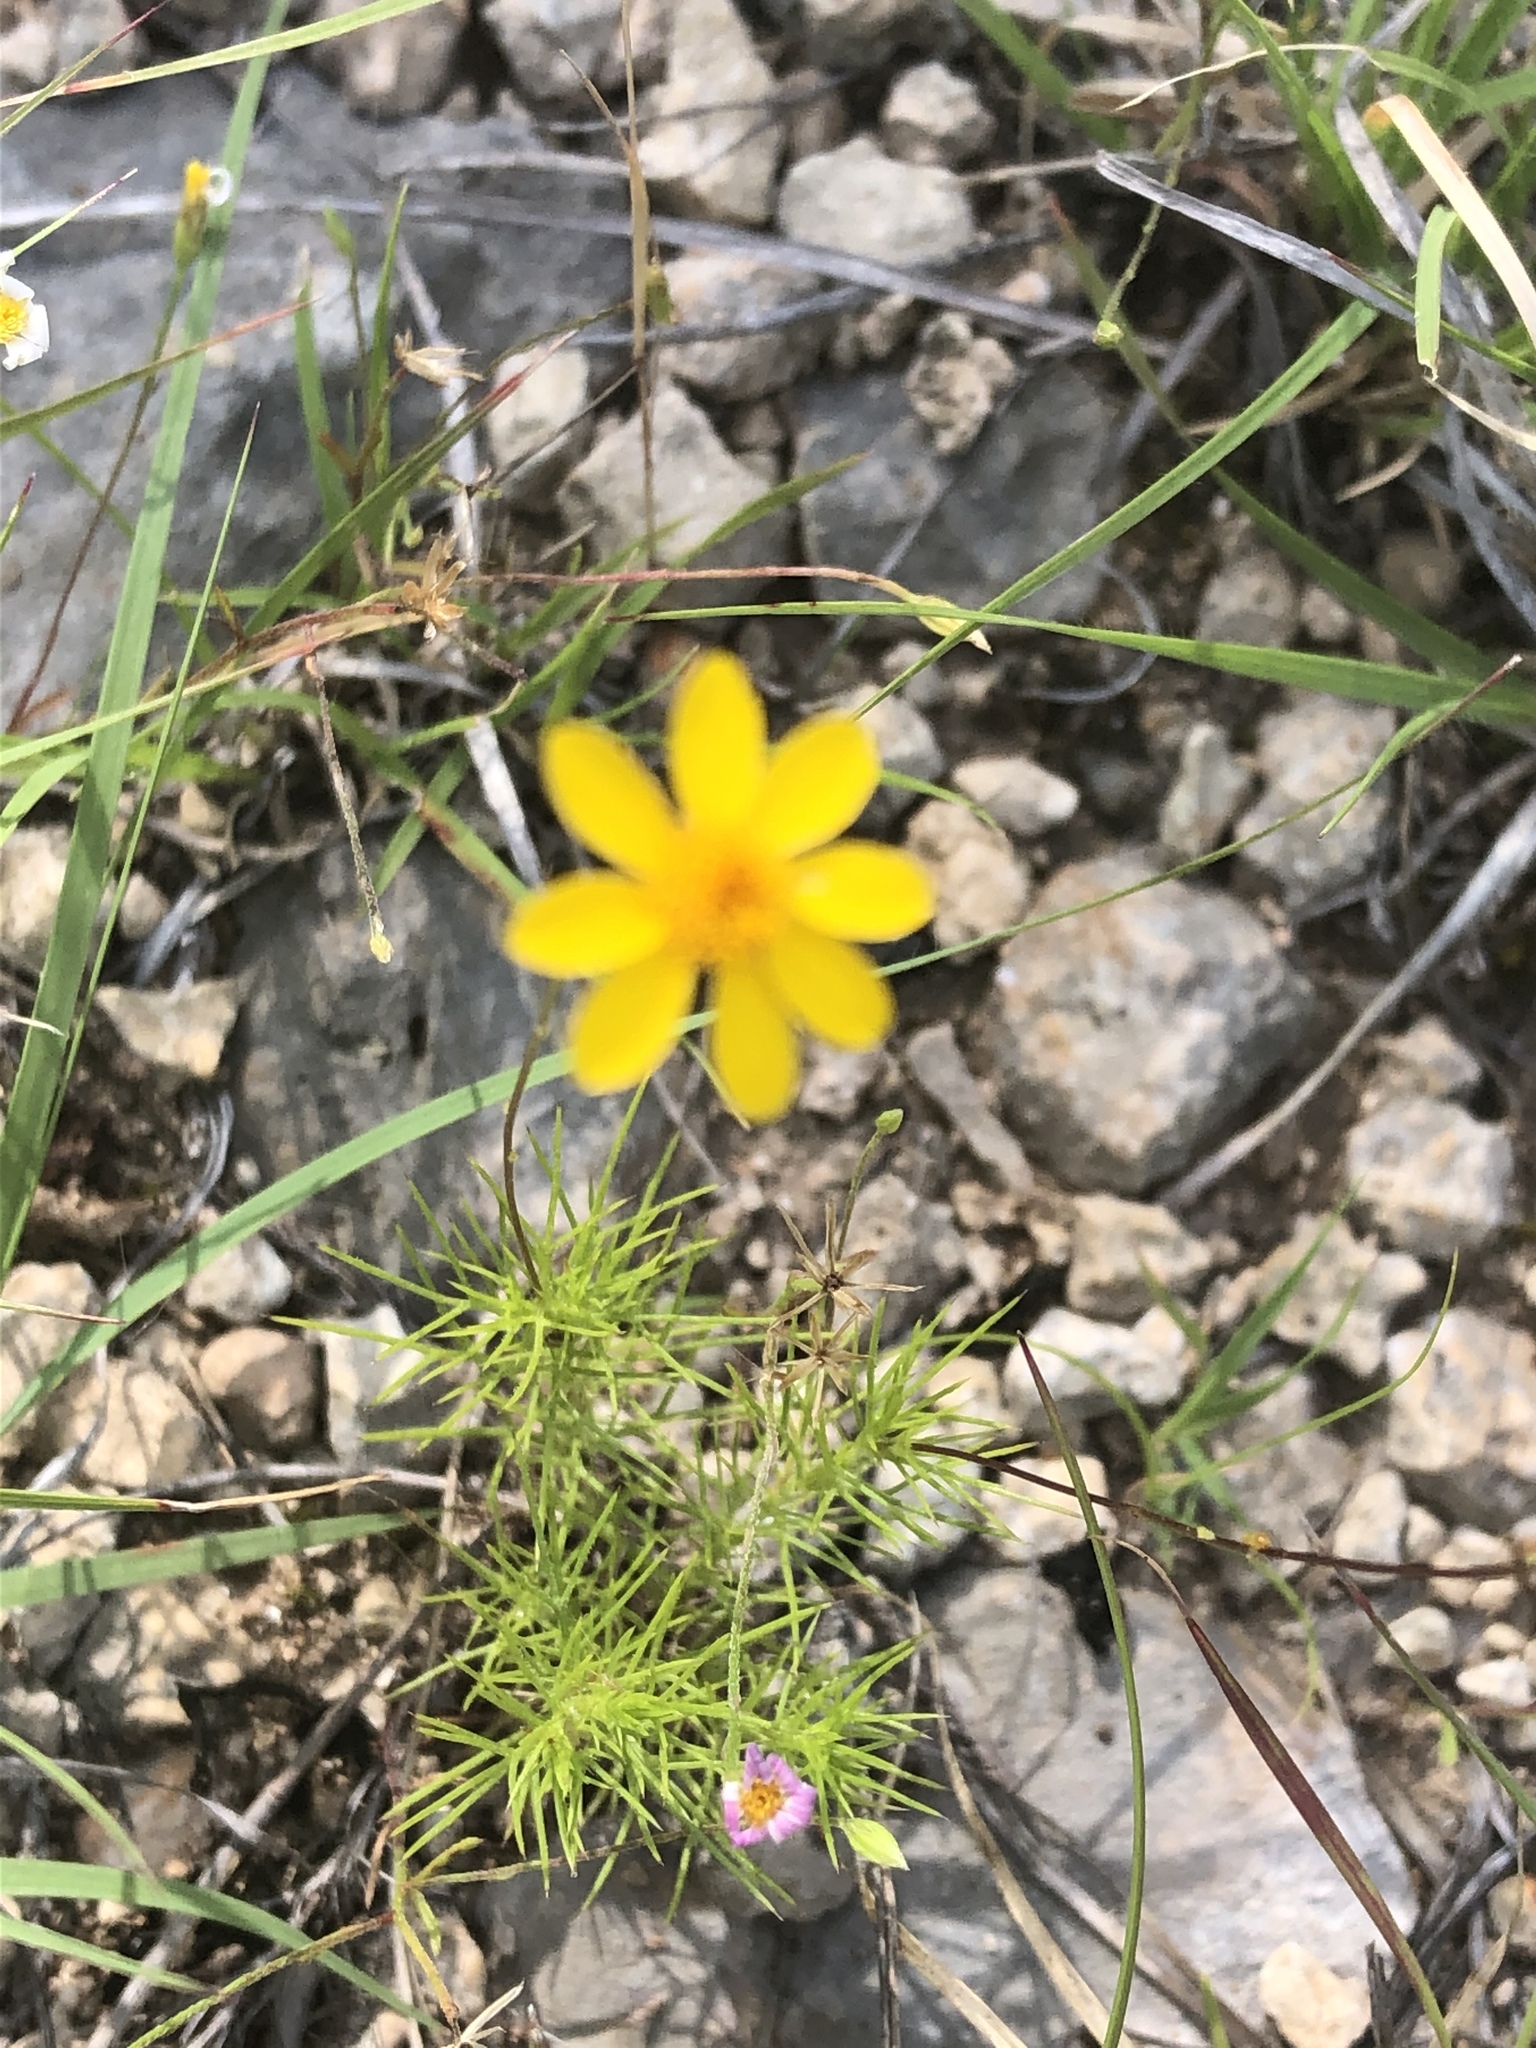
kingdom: Plantae
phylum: Tracheophyta
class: Magnoliopsida
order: Asterales
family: Asteraceae
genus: Thymophylla
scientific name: Thymophylla pentachaeta
